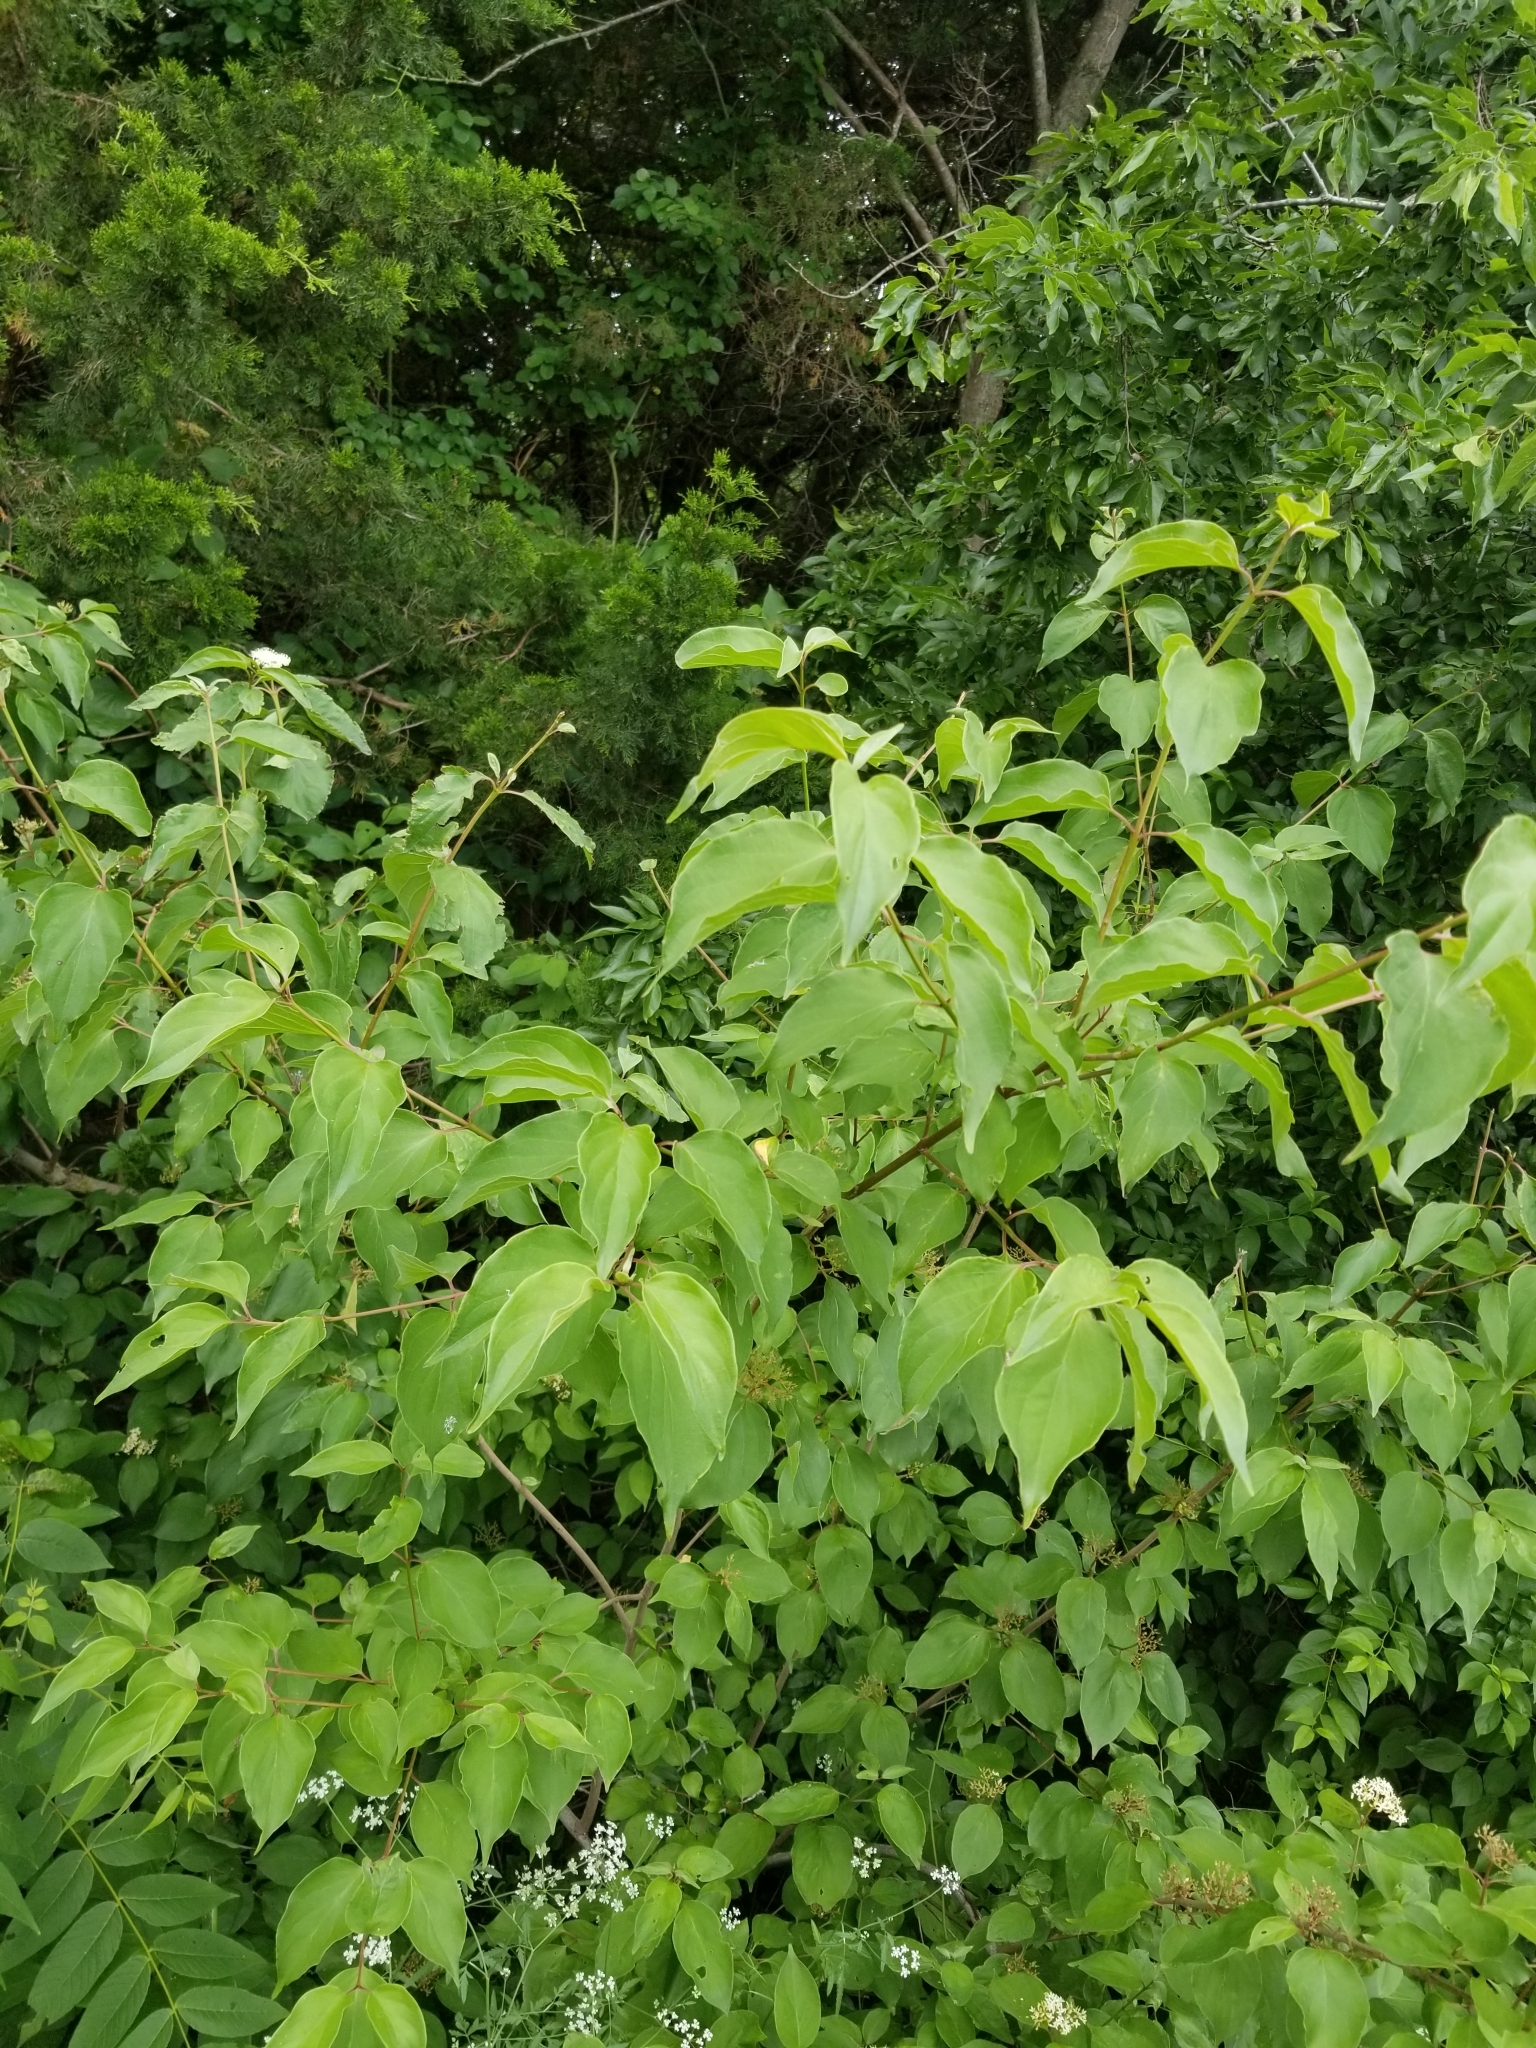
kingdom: Plantae
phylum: Tracheophyta
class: Magnoliopsida
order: Cornales
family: Cornaceae
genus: Cornus
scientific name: Cornus drummondii
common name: Rough-leaf dogwood
